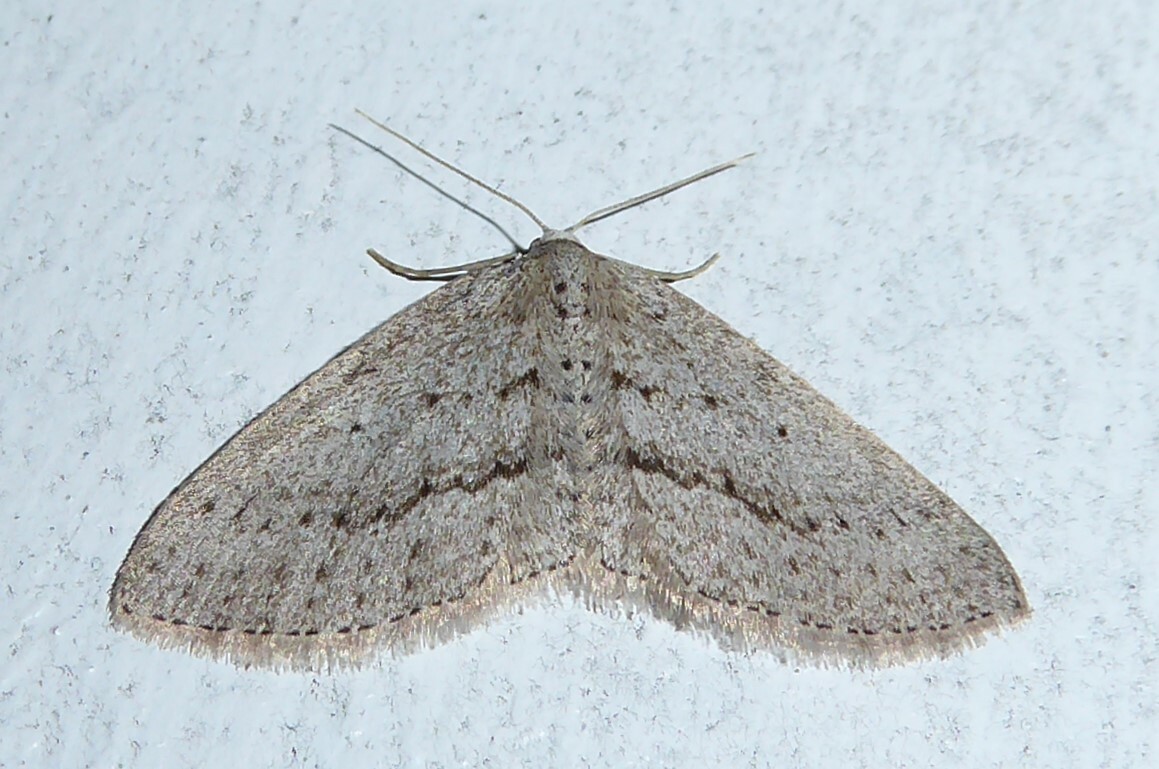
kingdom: Animalia
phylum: Arthropoda
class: Insecta
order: Lepidoptera
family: Geometridae
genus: Poecilasthena
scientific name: Poecilasthena schistaria
